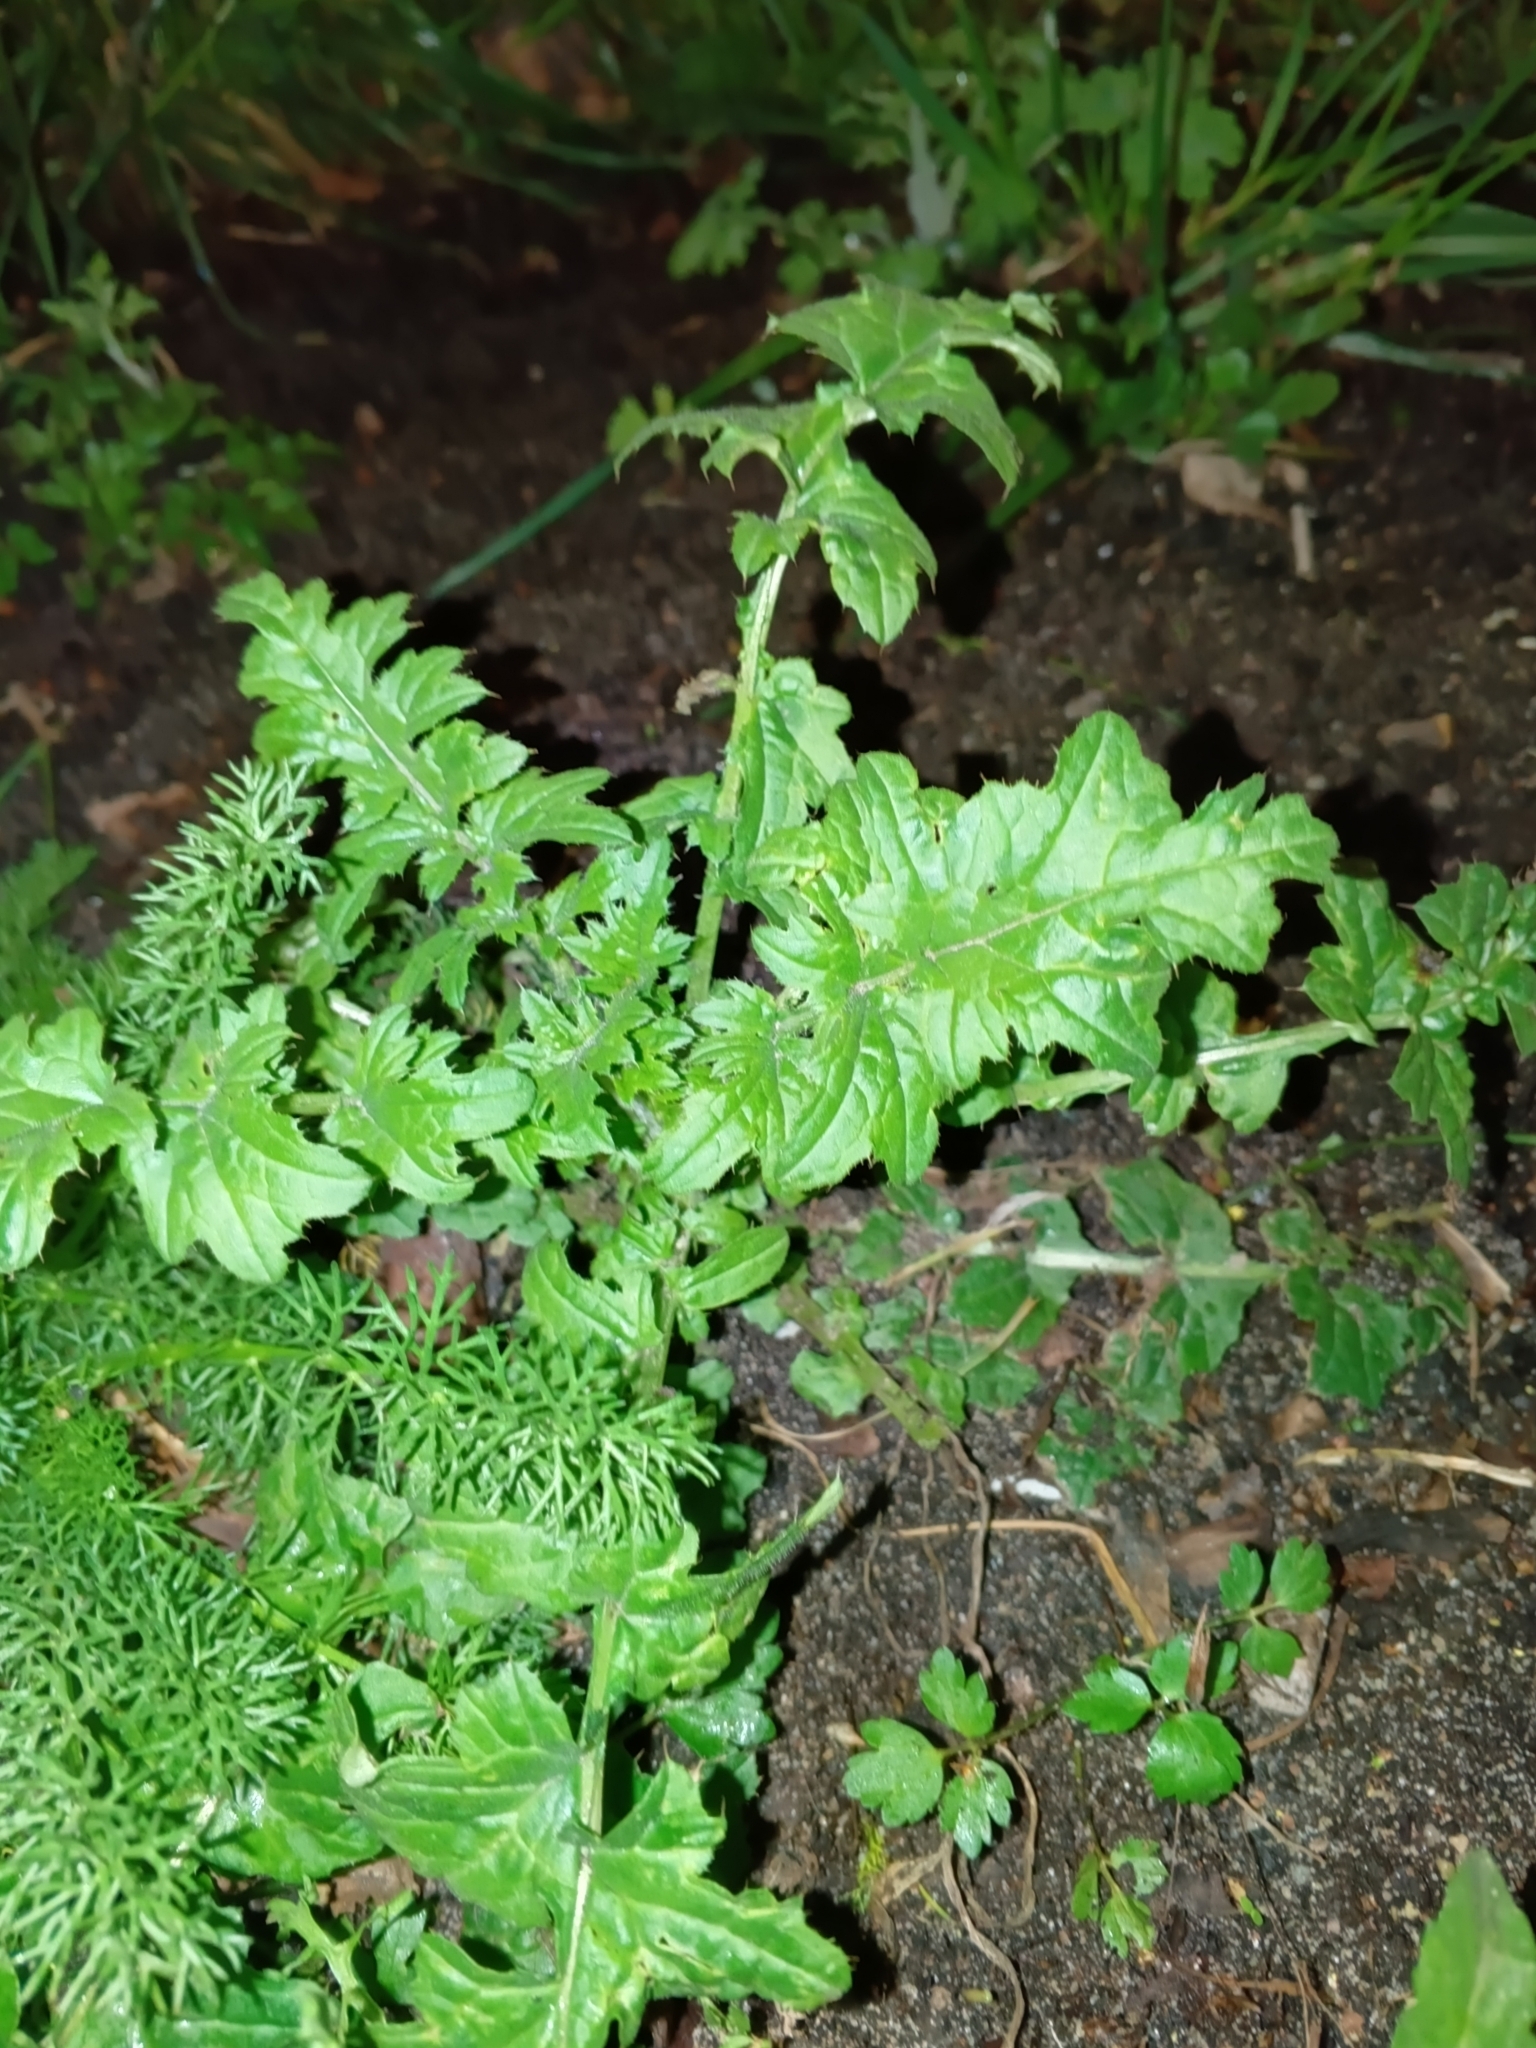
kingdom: Plantae
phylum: Tracheophyta
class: Magnoliopsida
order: Asterales
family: Asteraceae
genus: Carduus
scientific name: Carduus crispus
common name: Welted thistle
